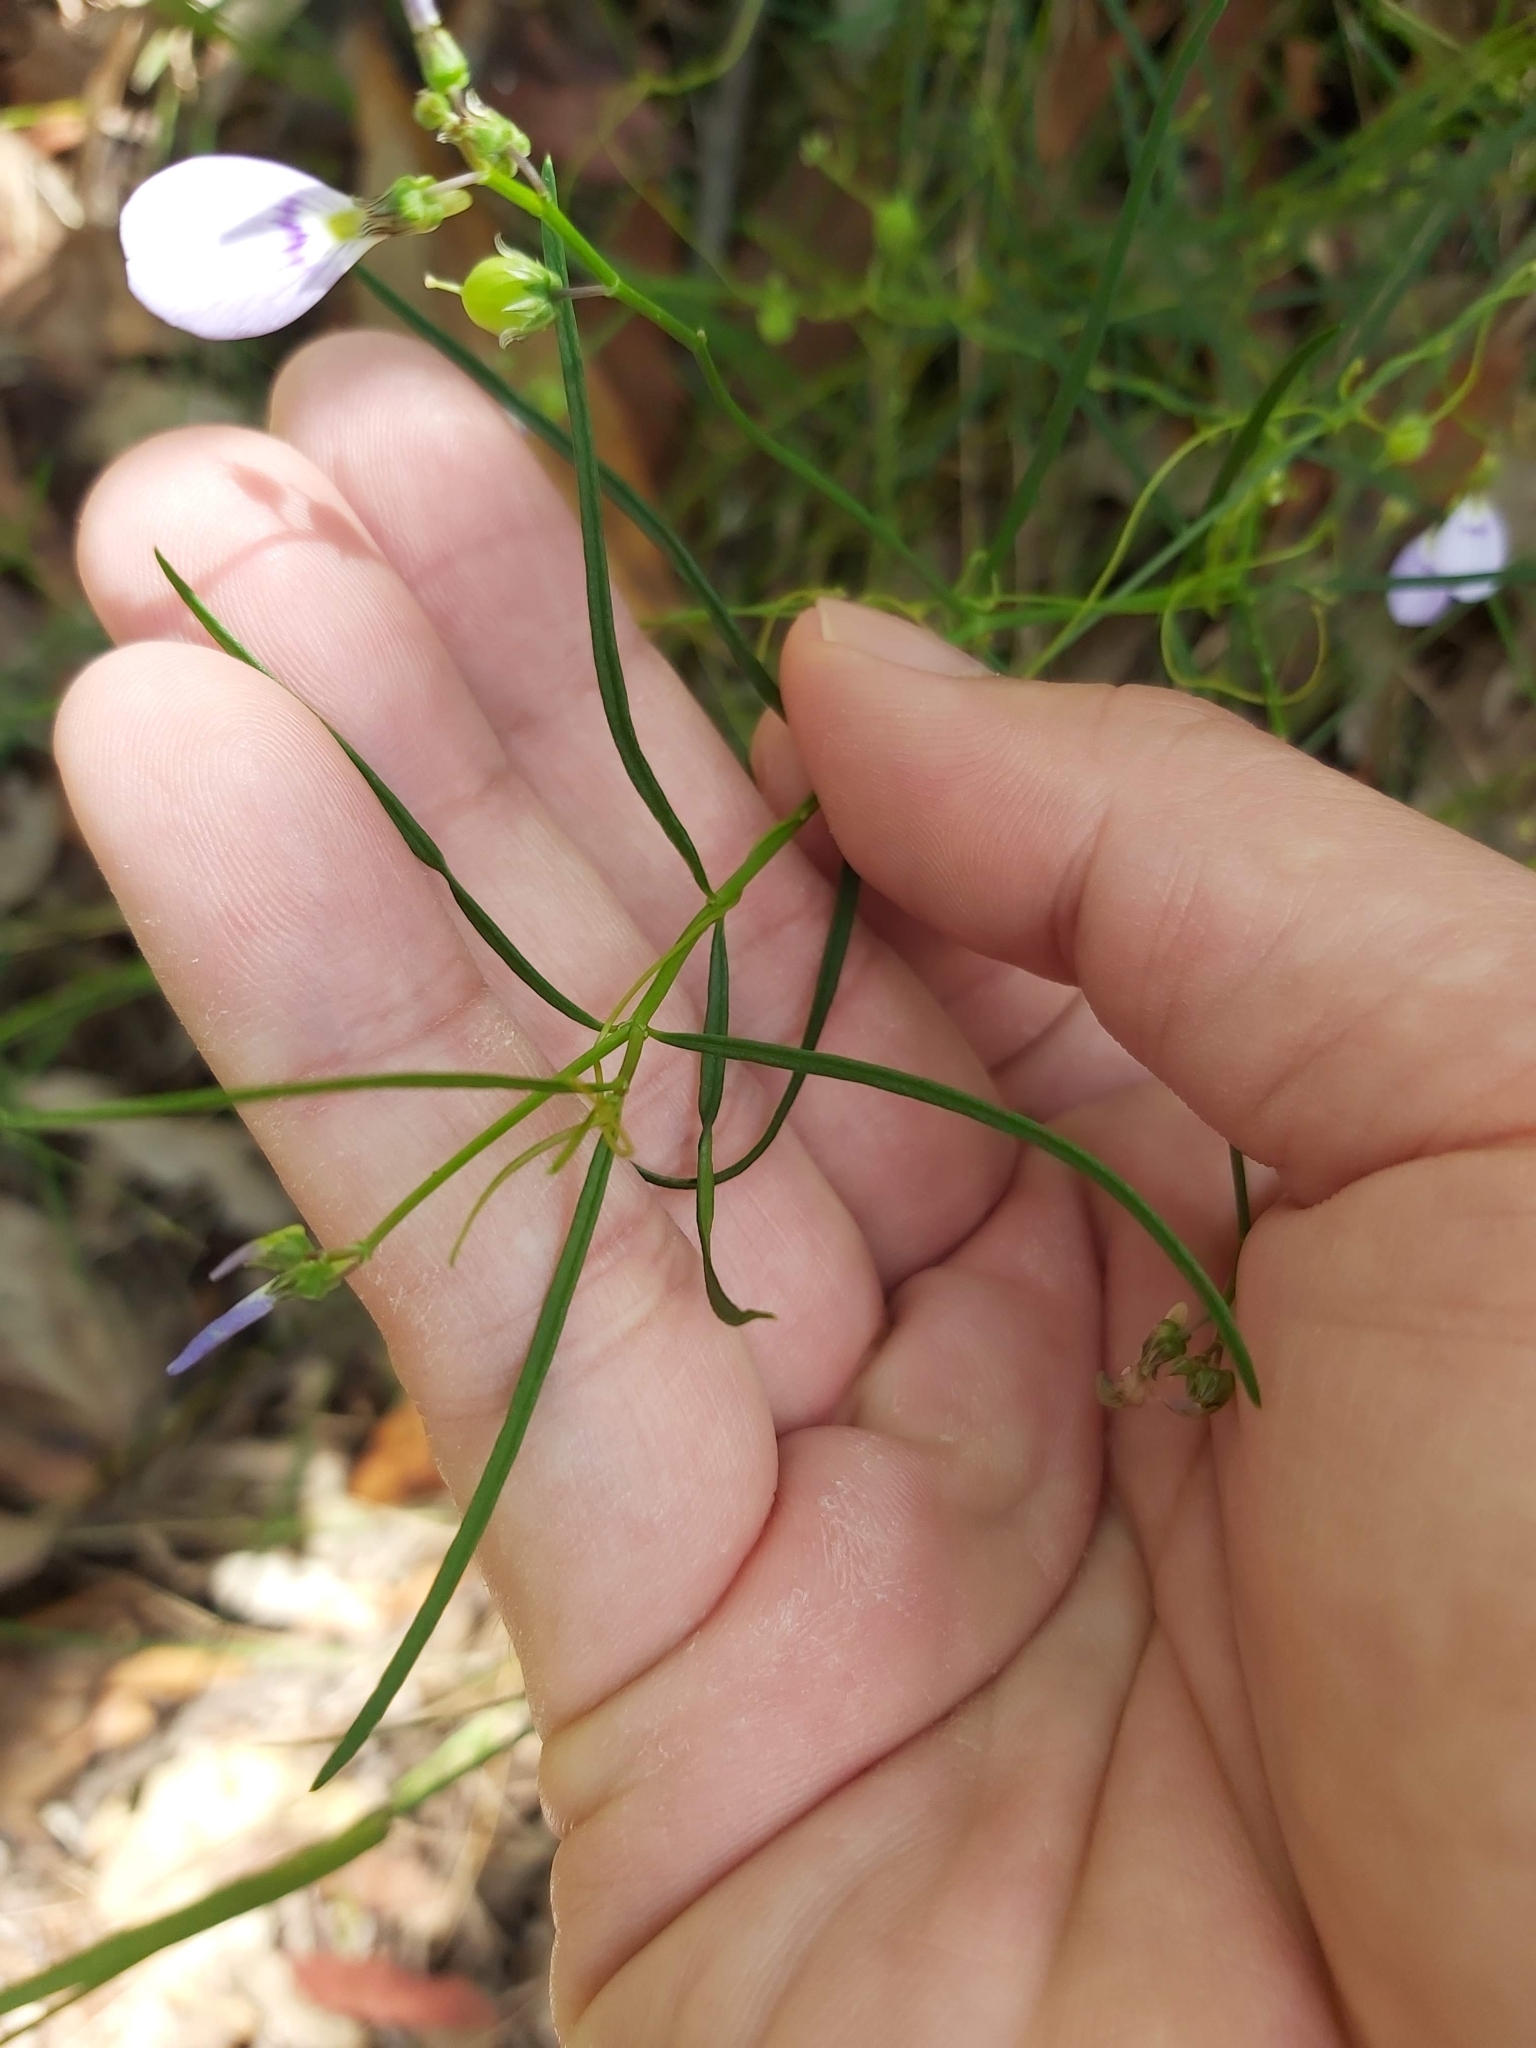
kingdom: Plantae
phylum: Tracheophyta
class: Magnoliopsida
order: Malpighiales
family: Violaceae
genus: Pigea
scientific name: Pigea monopetala
